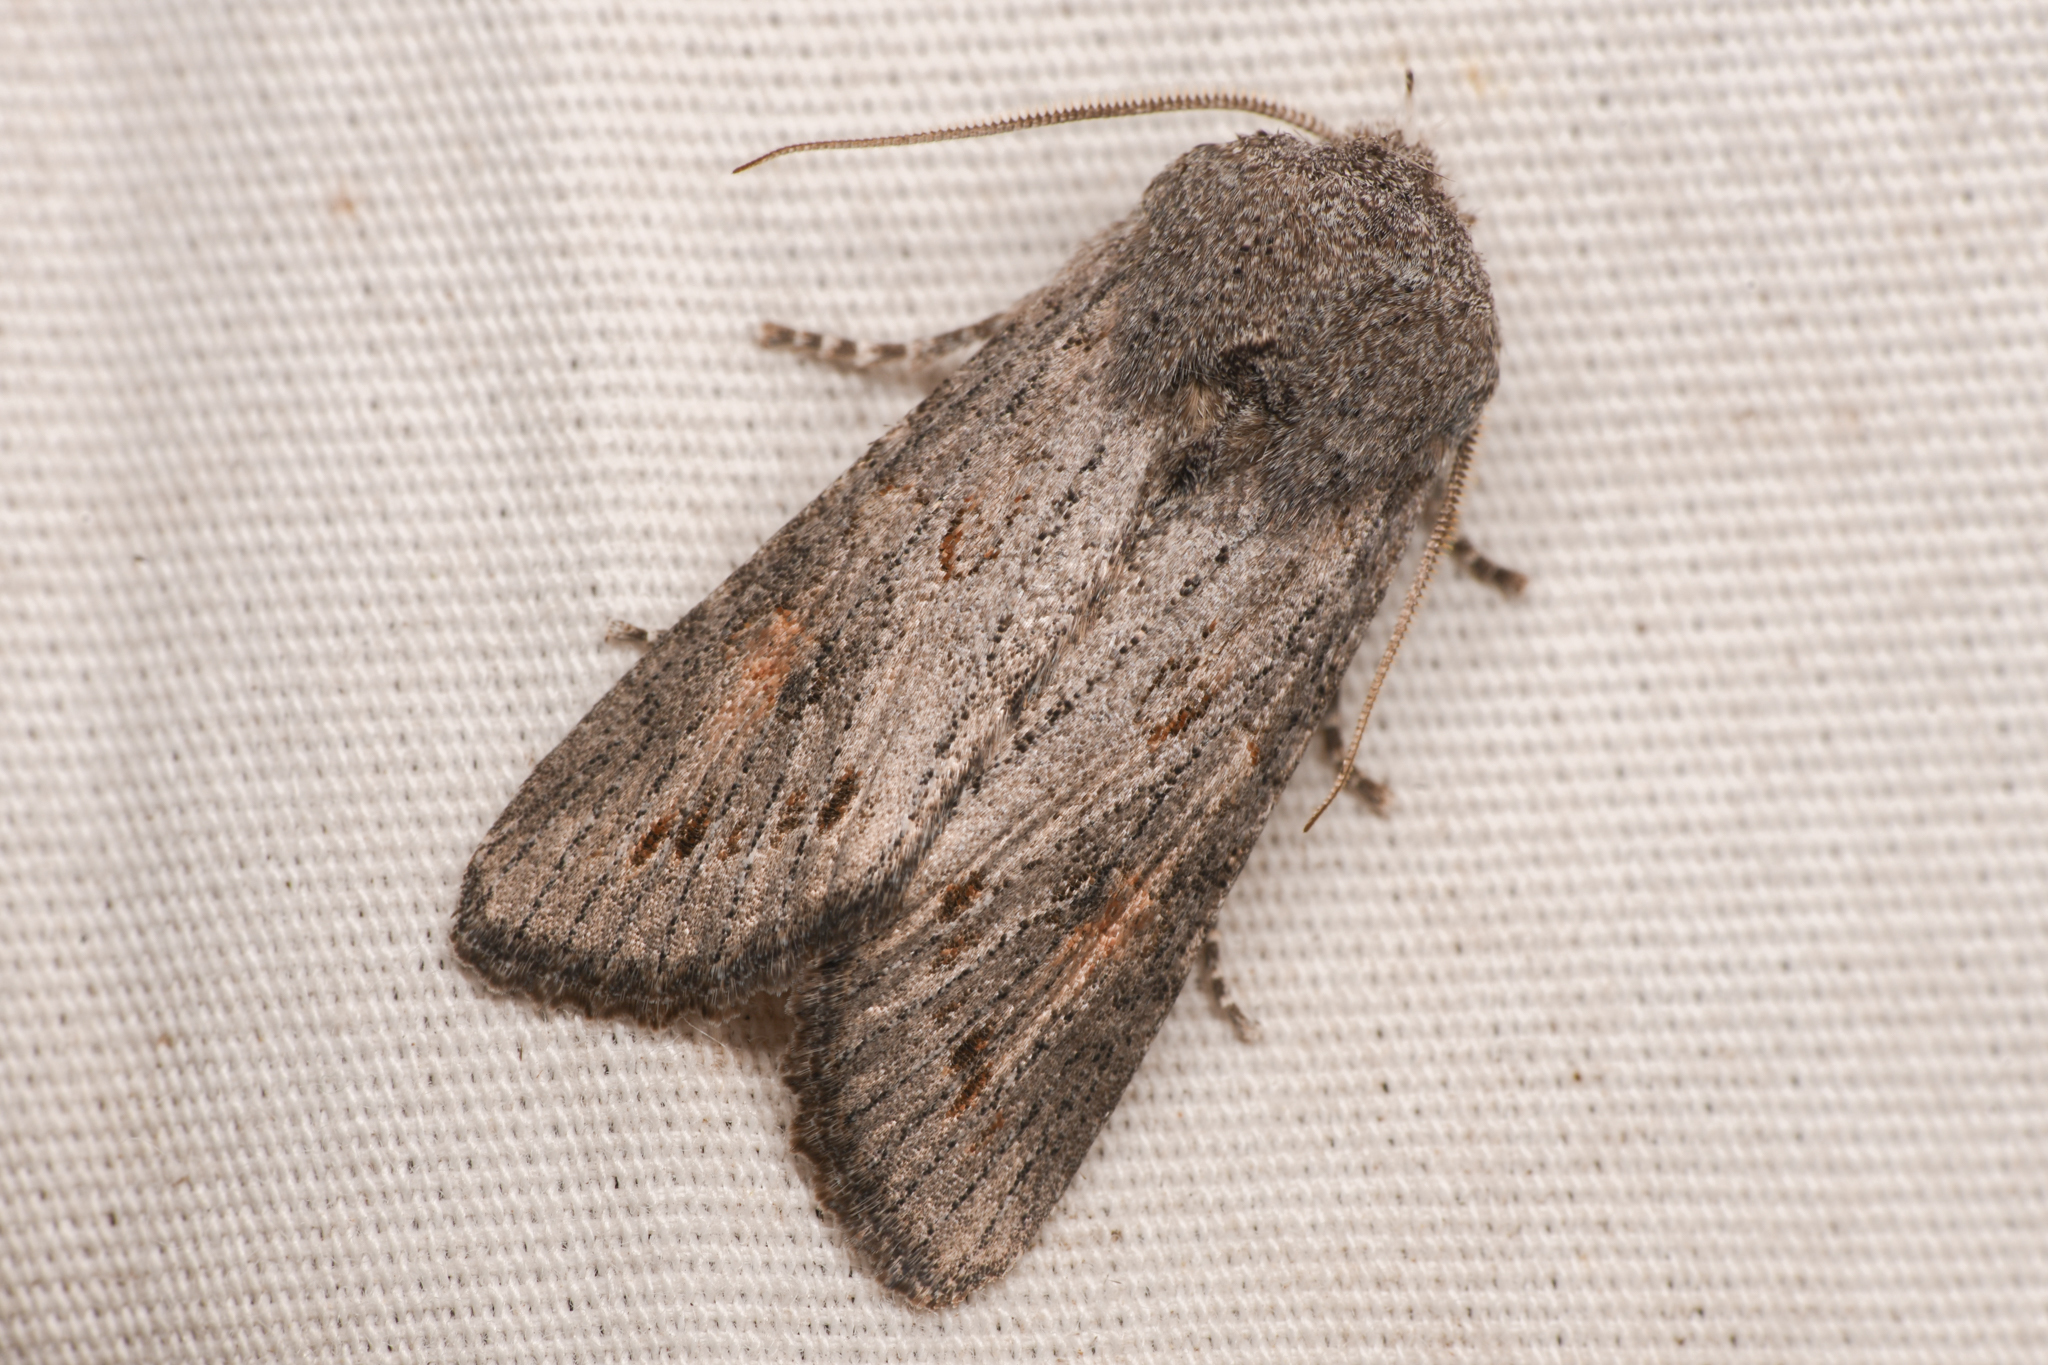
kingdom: Animalia
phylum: Arthropoda
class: Insecta
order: Lepidoptera
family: Noctuidae
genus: Egira
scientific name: Egira curialis
